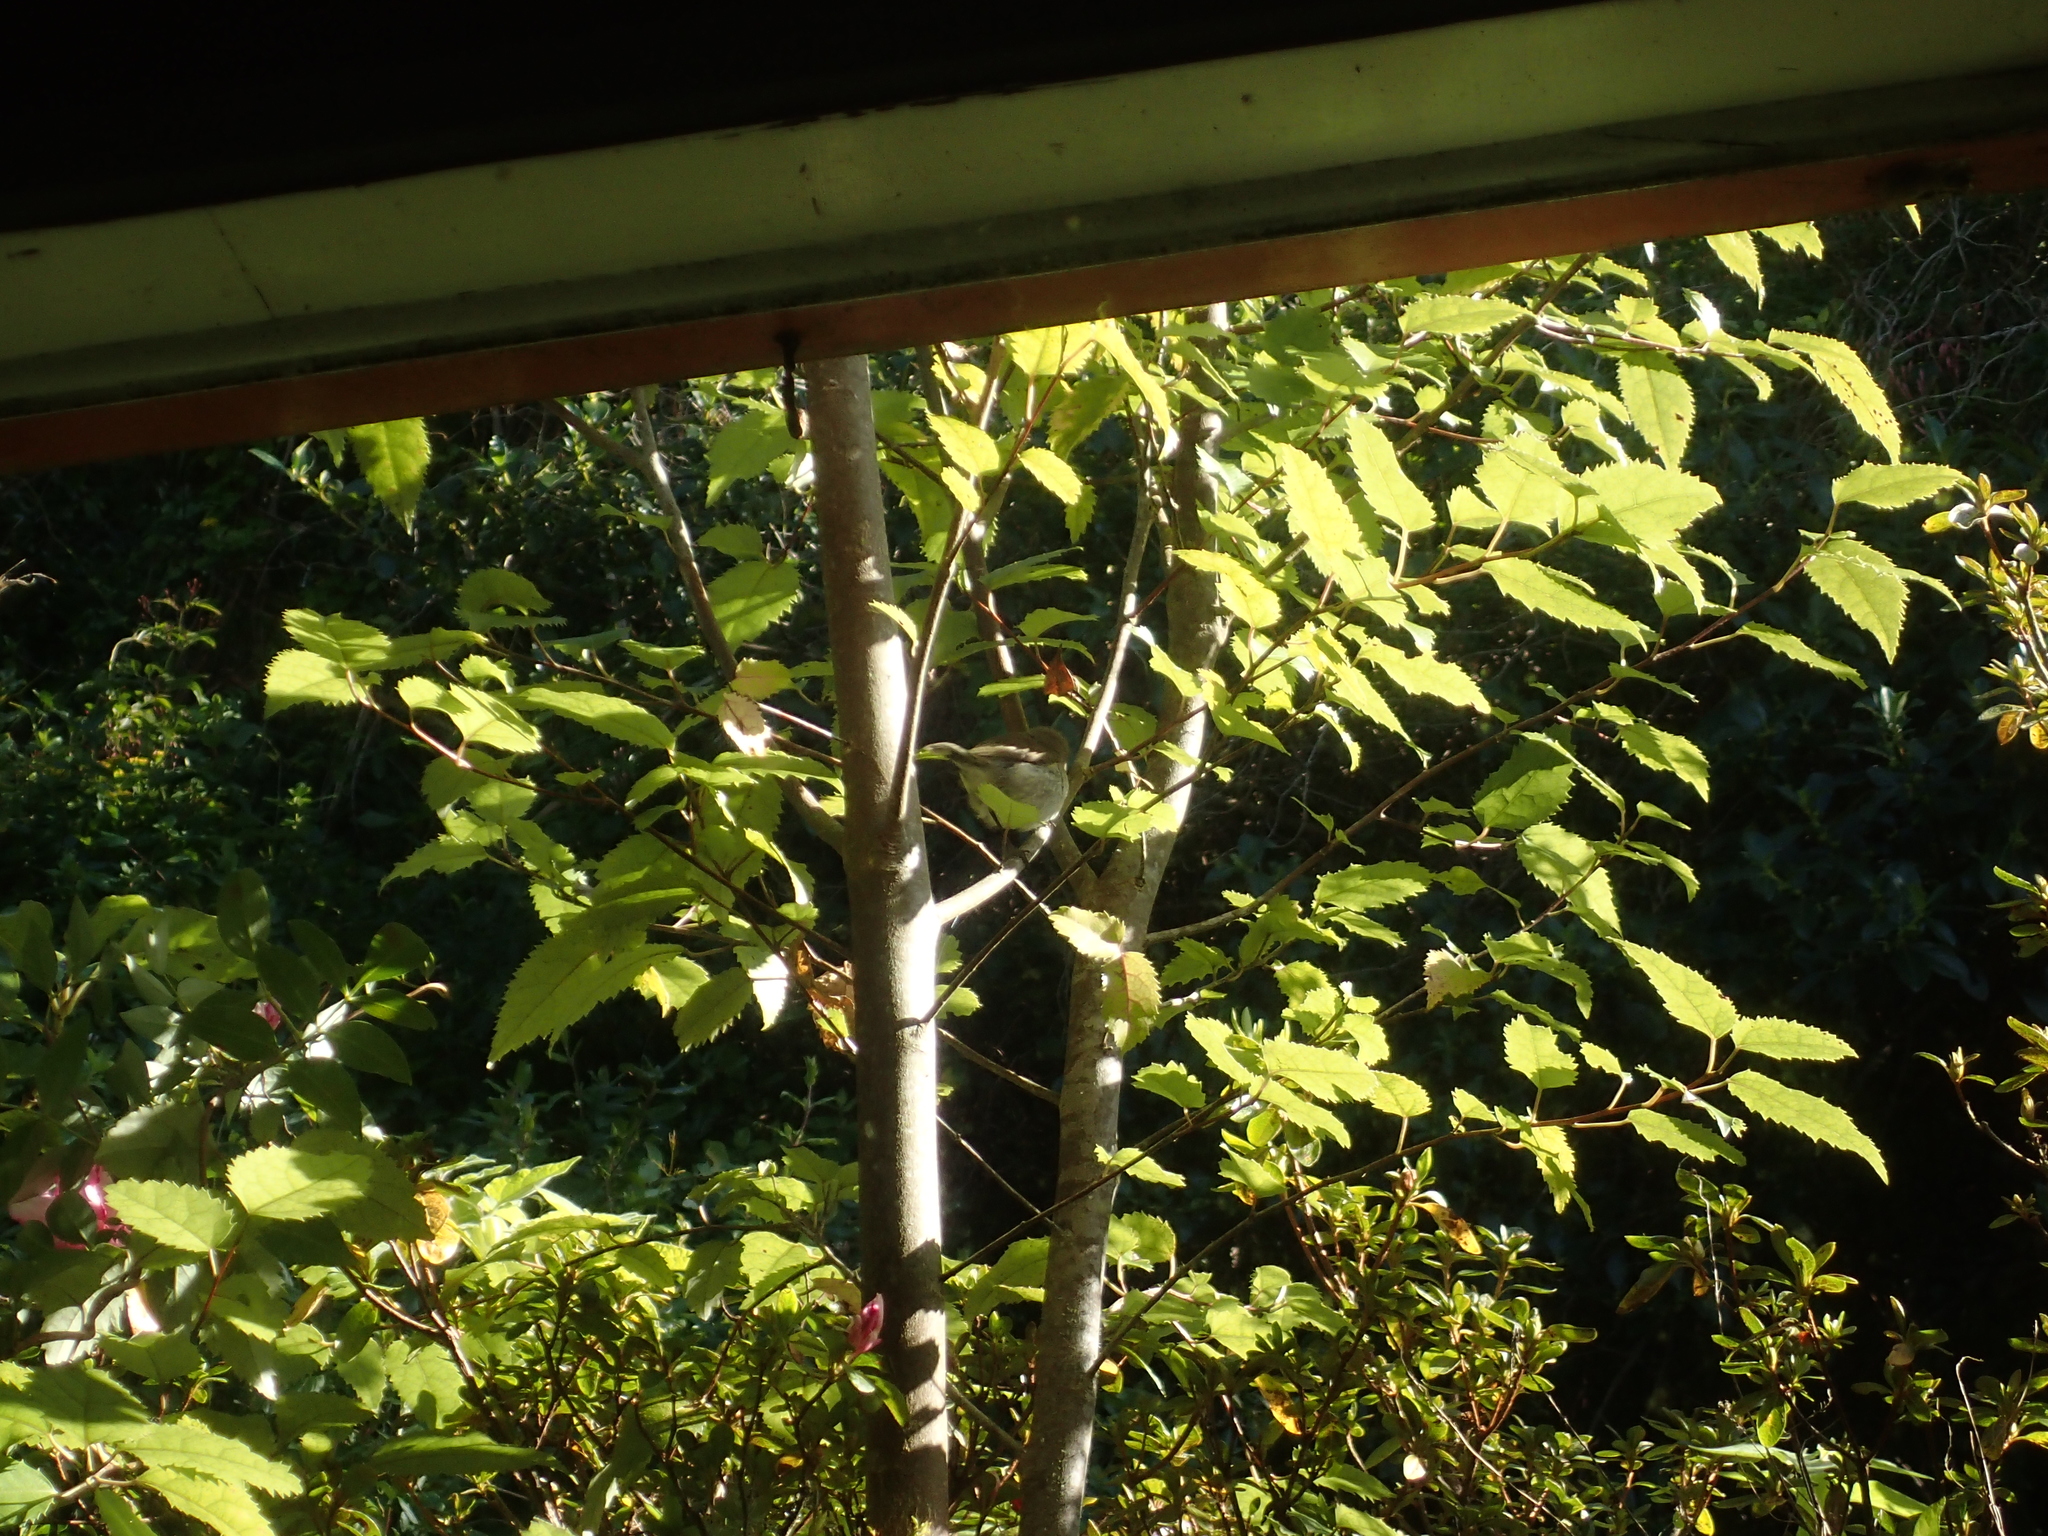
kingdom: Animalia
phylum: Chordata
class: Aves
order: Passeriformes
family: Acanthizidae
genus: Gerygone
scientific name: Gerygone igata
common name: Grey gerygone
